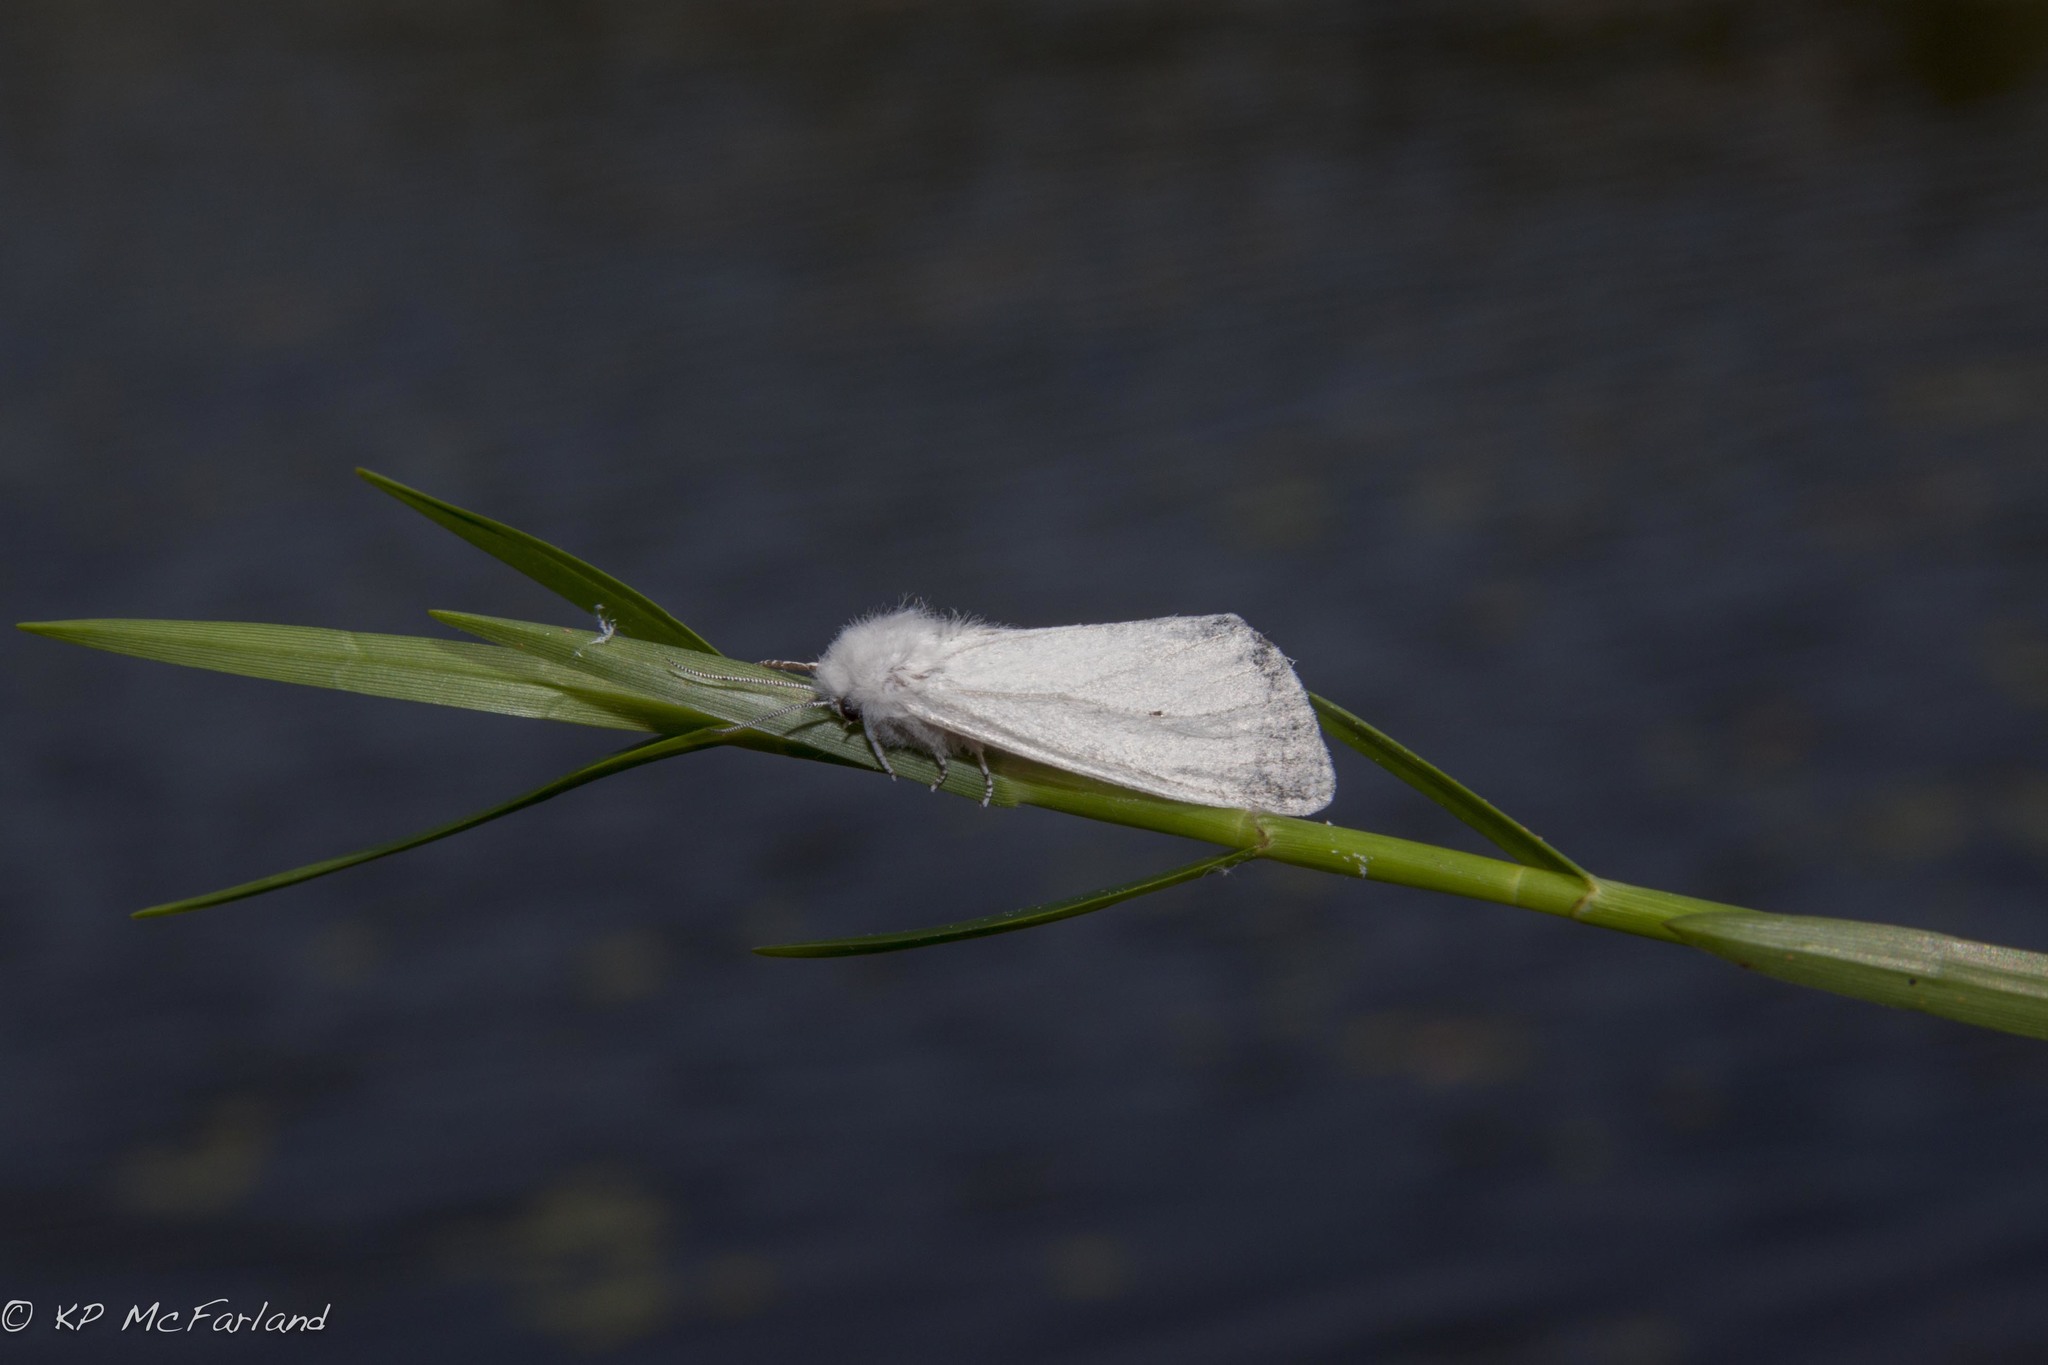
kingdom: Animalia
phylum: Arthropoda
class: Insecta
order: Lepidoptera
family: Erebidae
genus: Spilosoma
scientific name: Spilosoma virginica
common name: Virginia tiger moth
